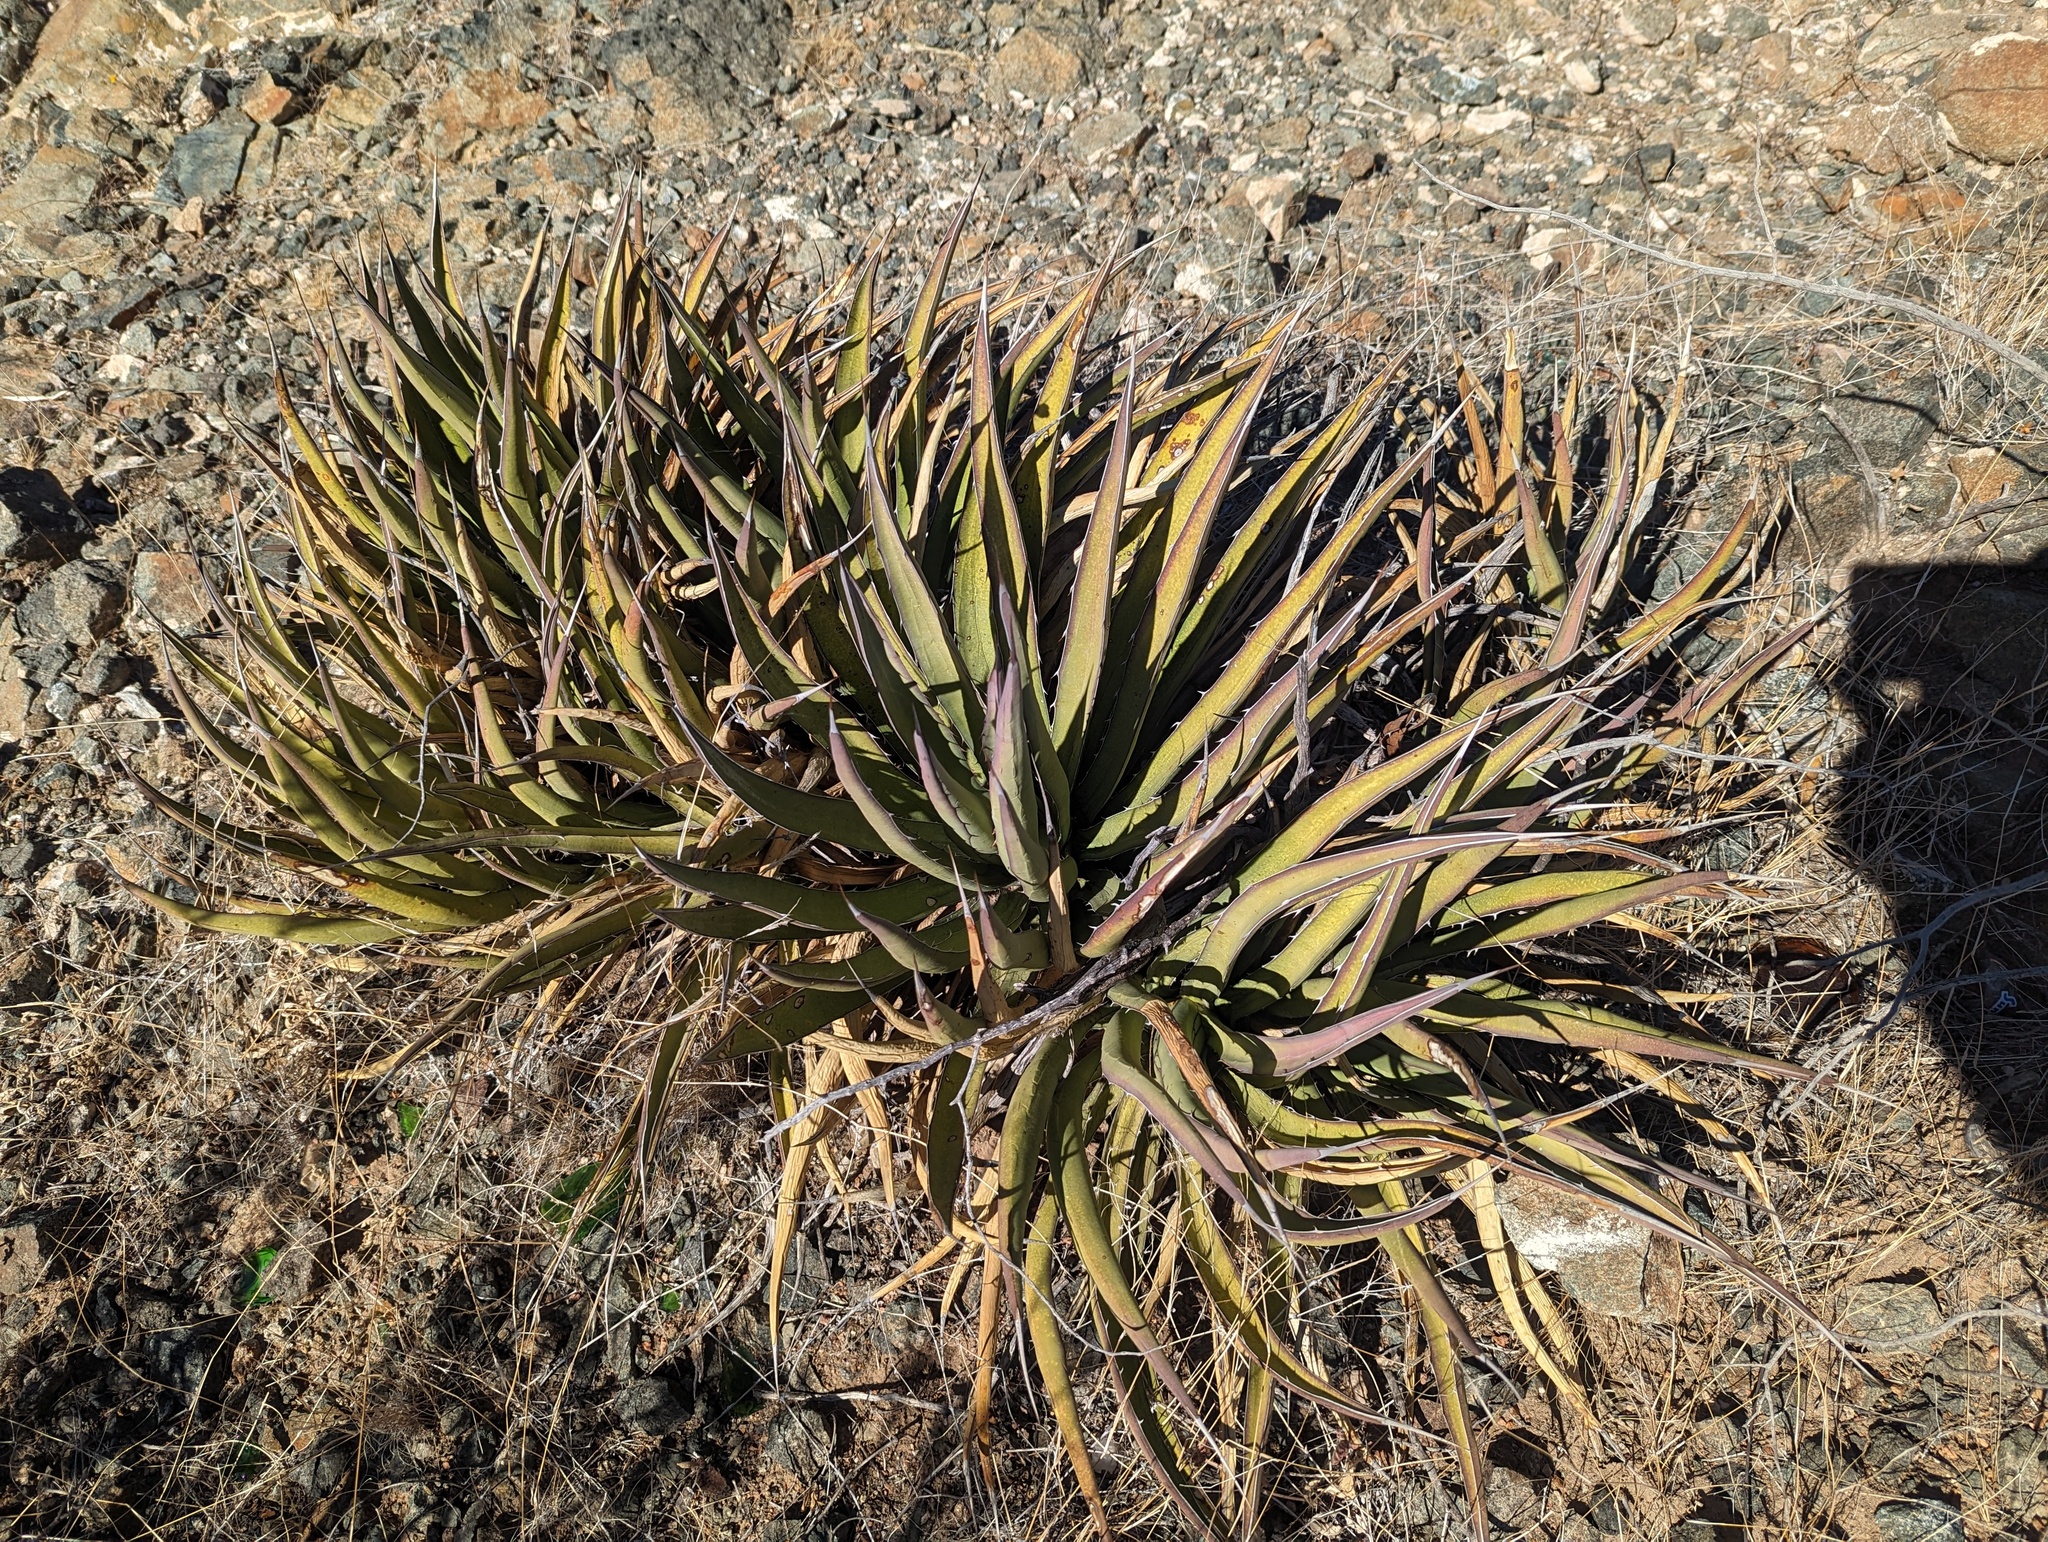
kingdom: Plantae
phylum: Tracheophyta
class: Liliopsida
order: Asparagales
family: Asparagaceae
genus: Agave
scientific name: Agave lechuguilla
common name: Lecheguilla agave
